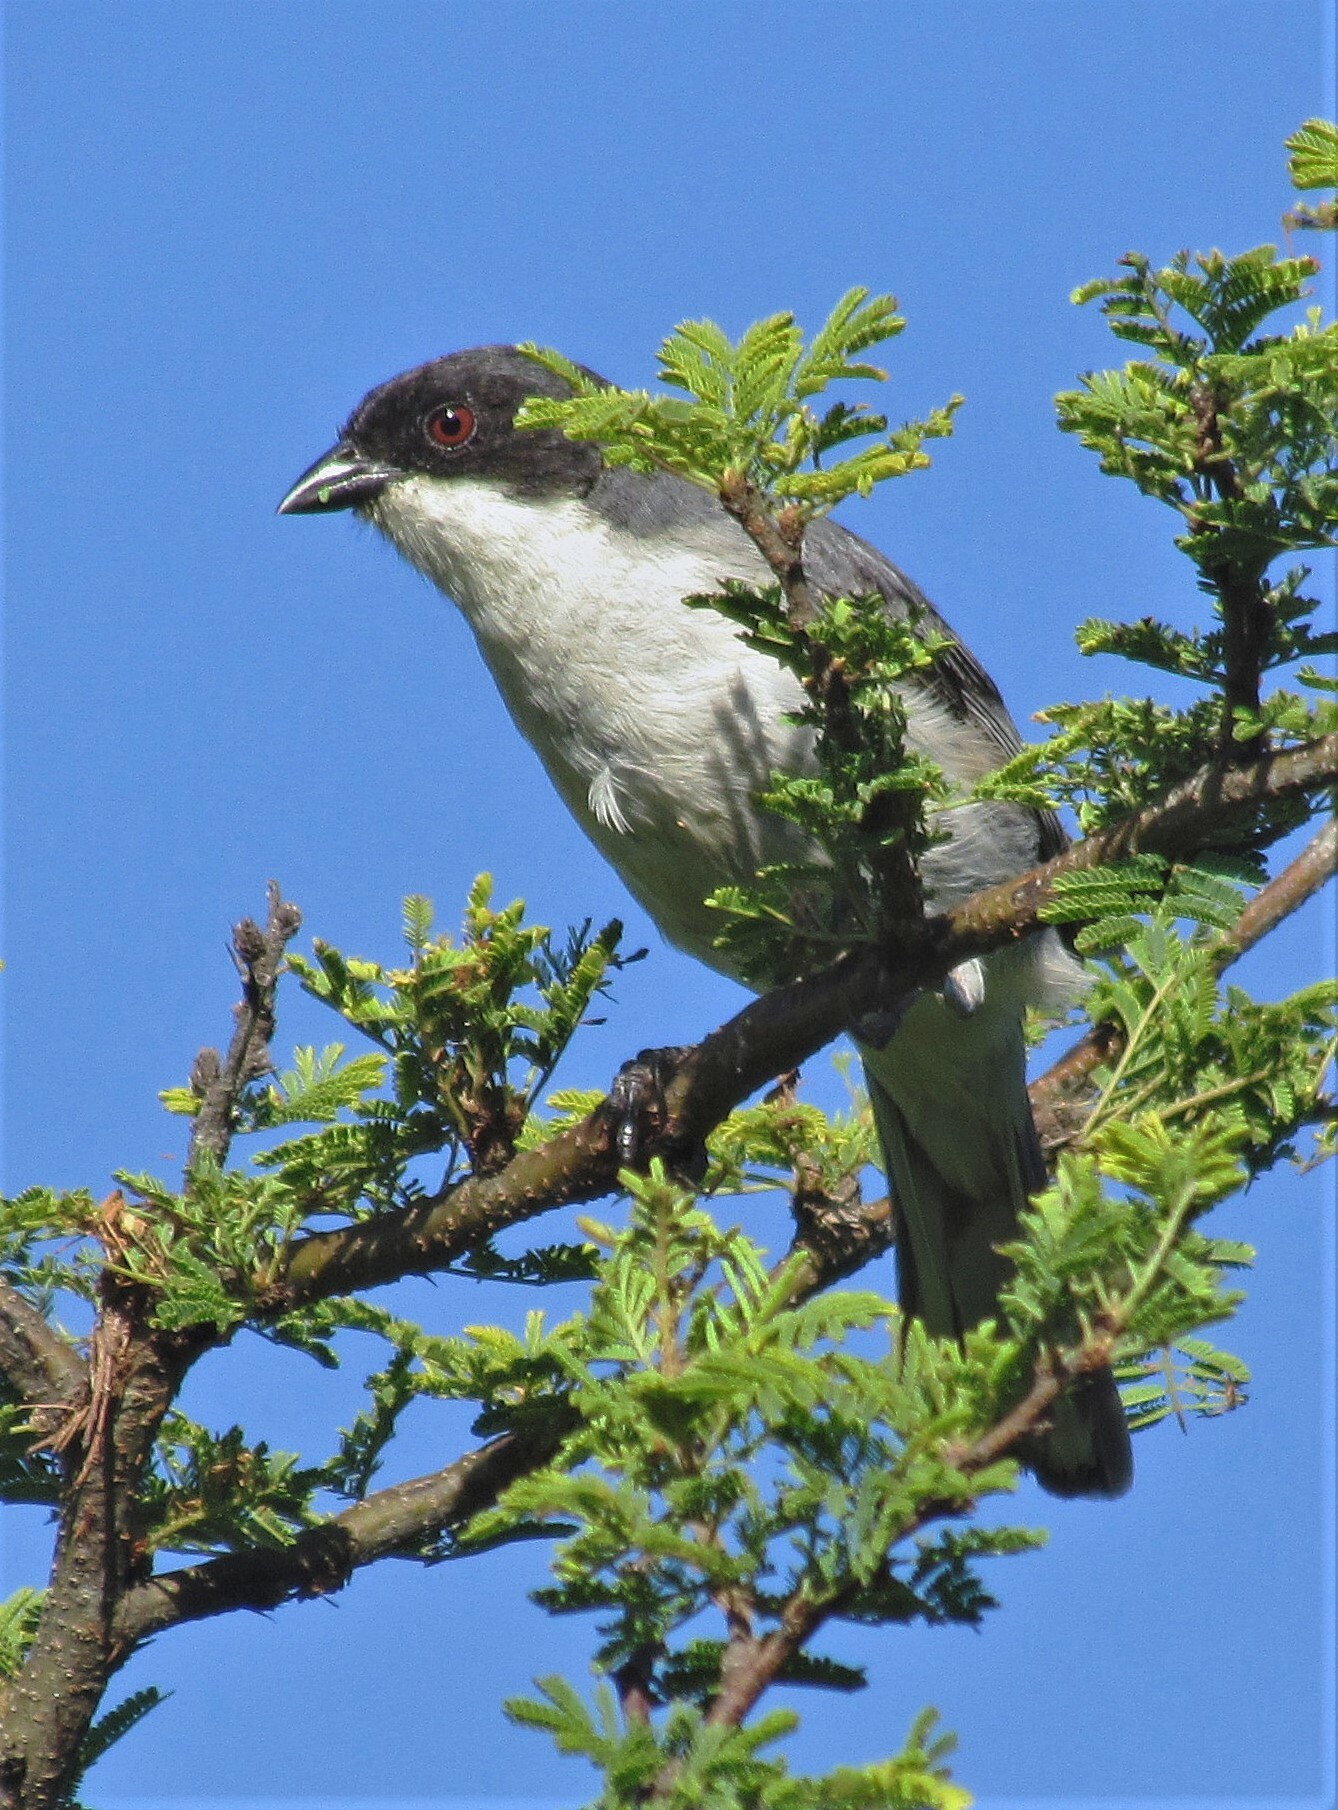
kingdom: Animalia
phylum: Chordata
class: Aves
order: Passeriformes
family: Thraupidae
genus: Microspingus
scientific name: Microspingus melanoleucus
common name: Black-capped warbling-finch
